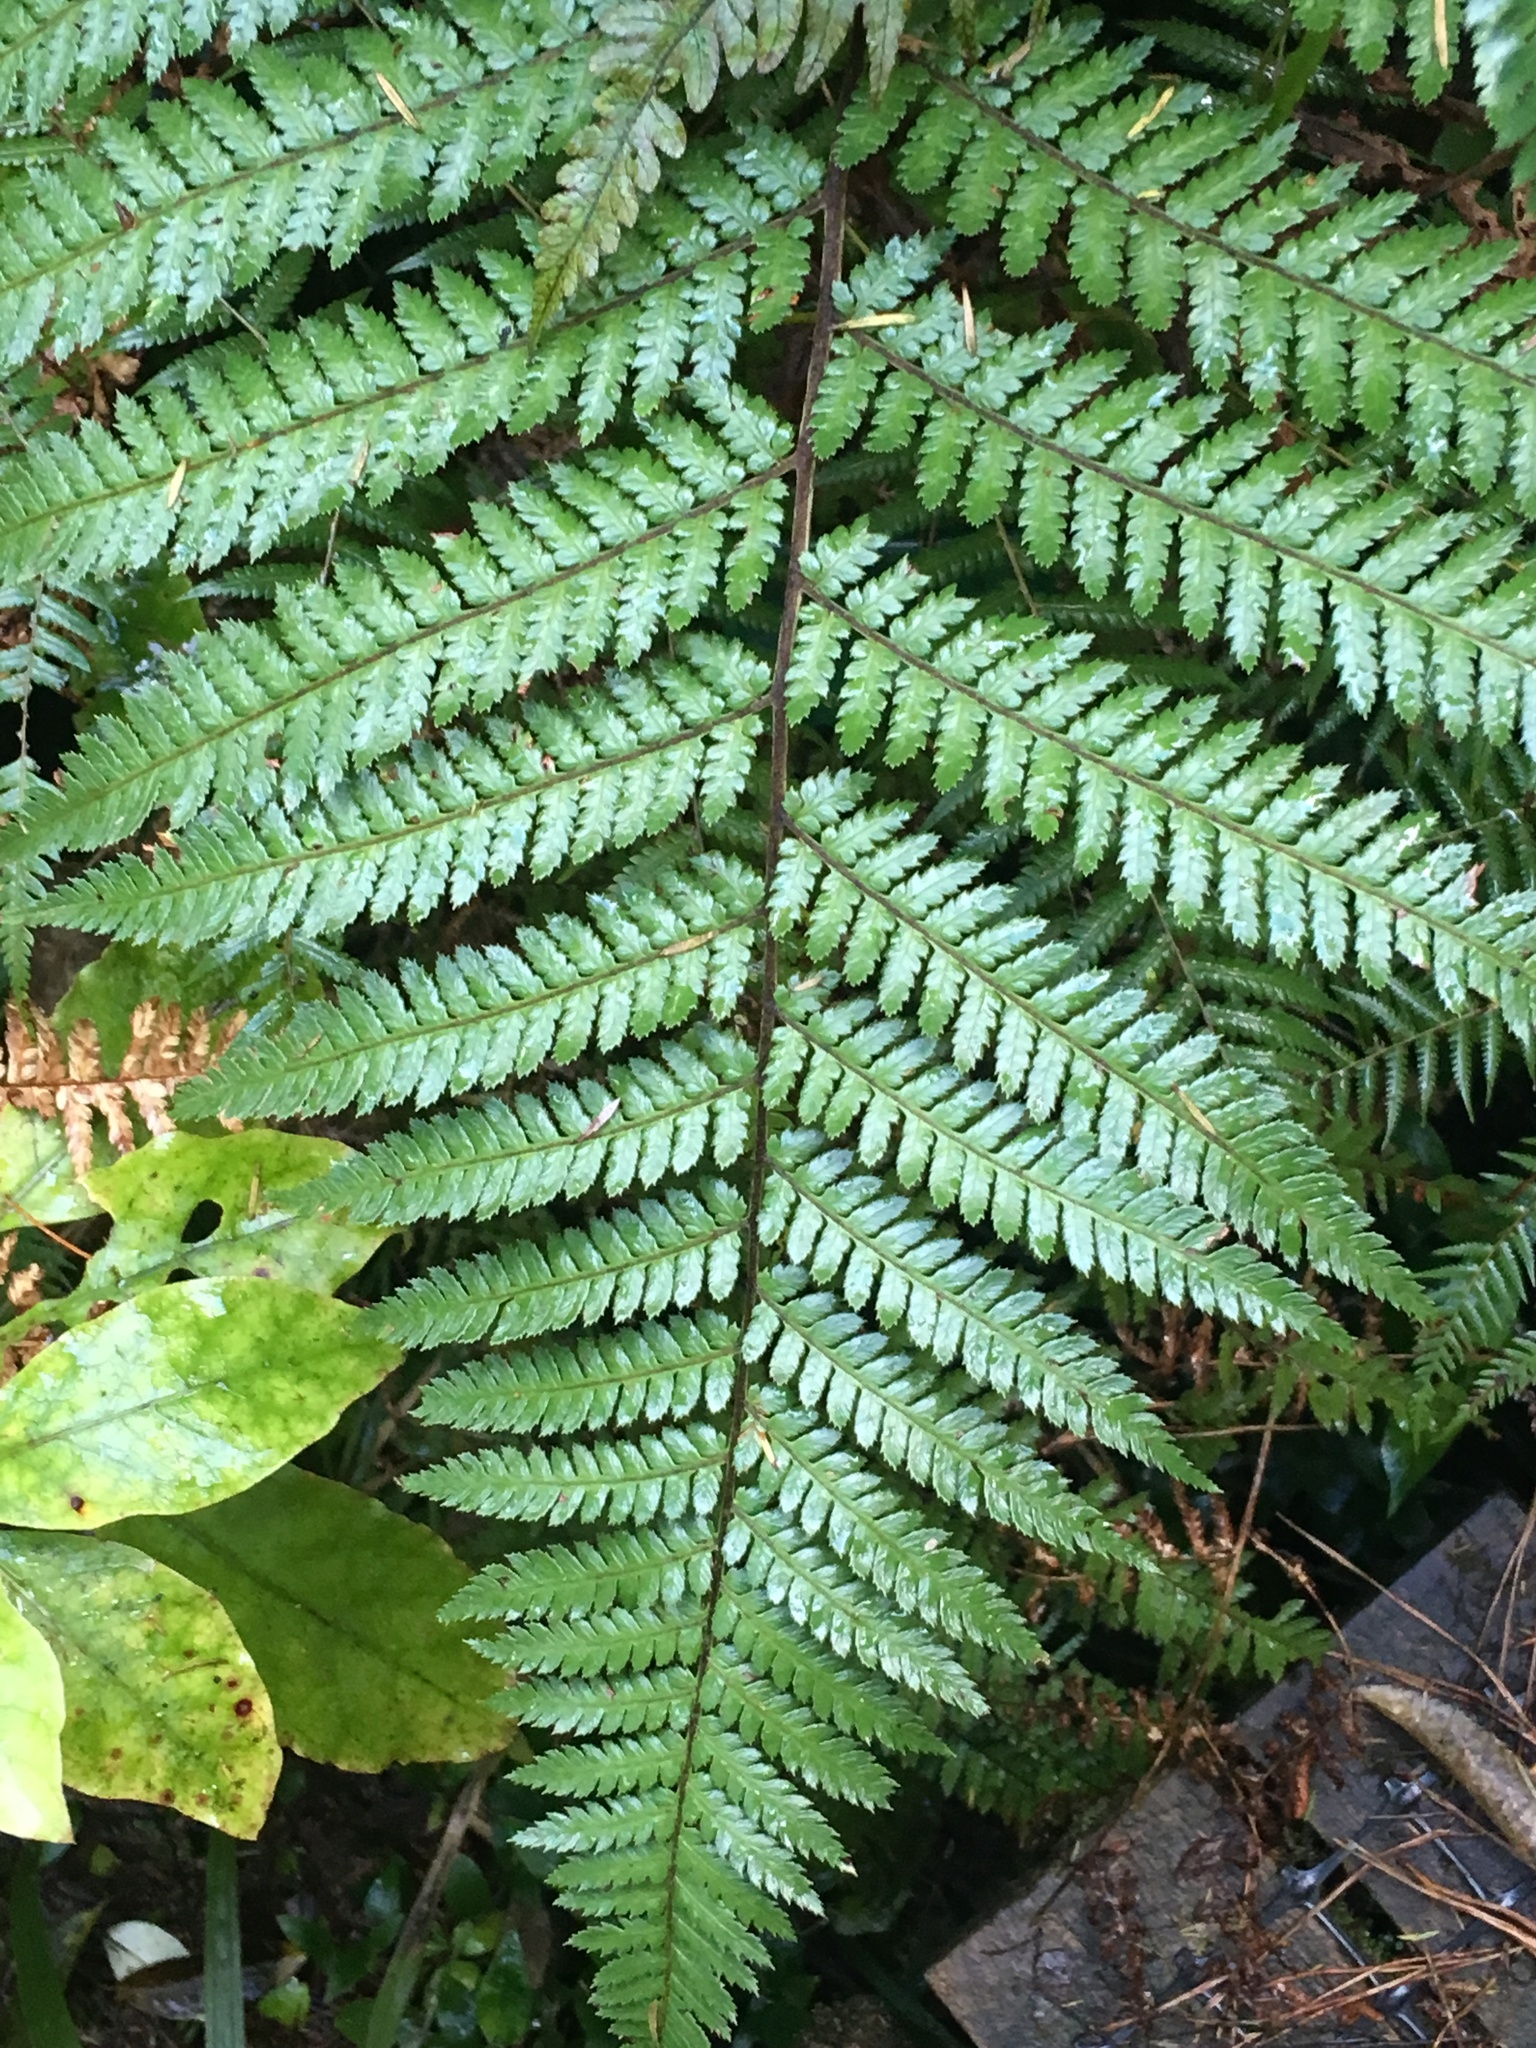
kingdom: Plantae
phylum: Tracheophyta
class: Polypodiopsida
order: Cyatheales
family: Dicksoniaceae
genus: Dicksonia
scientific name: Dicksonia squarrosa
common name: Hard treefern
